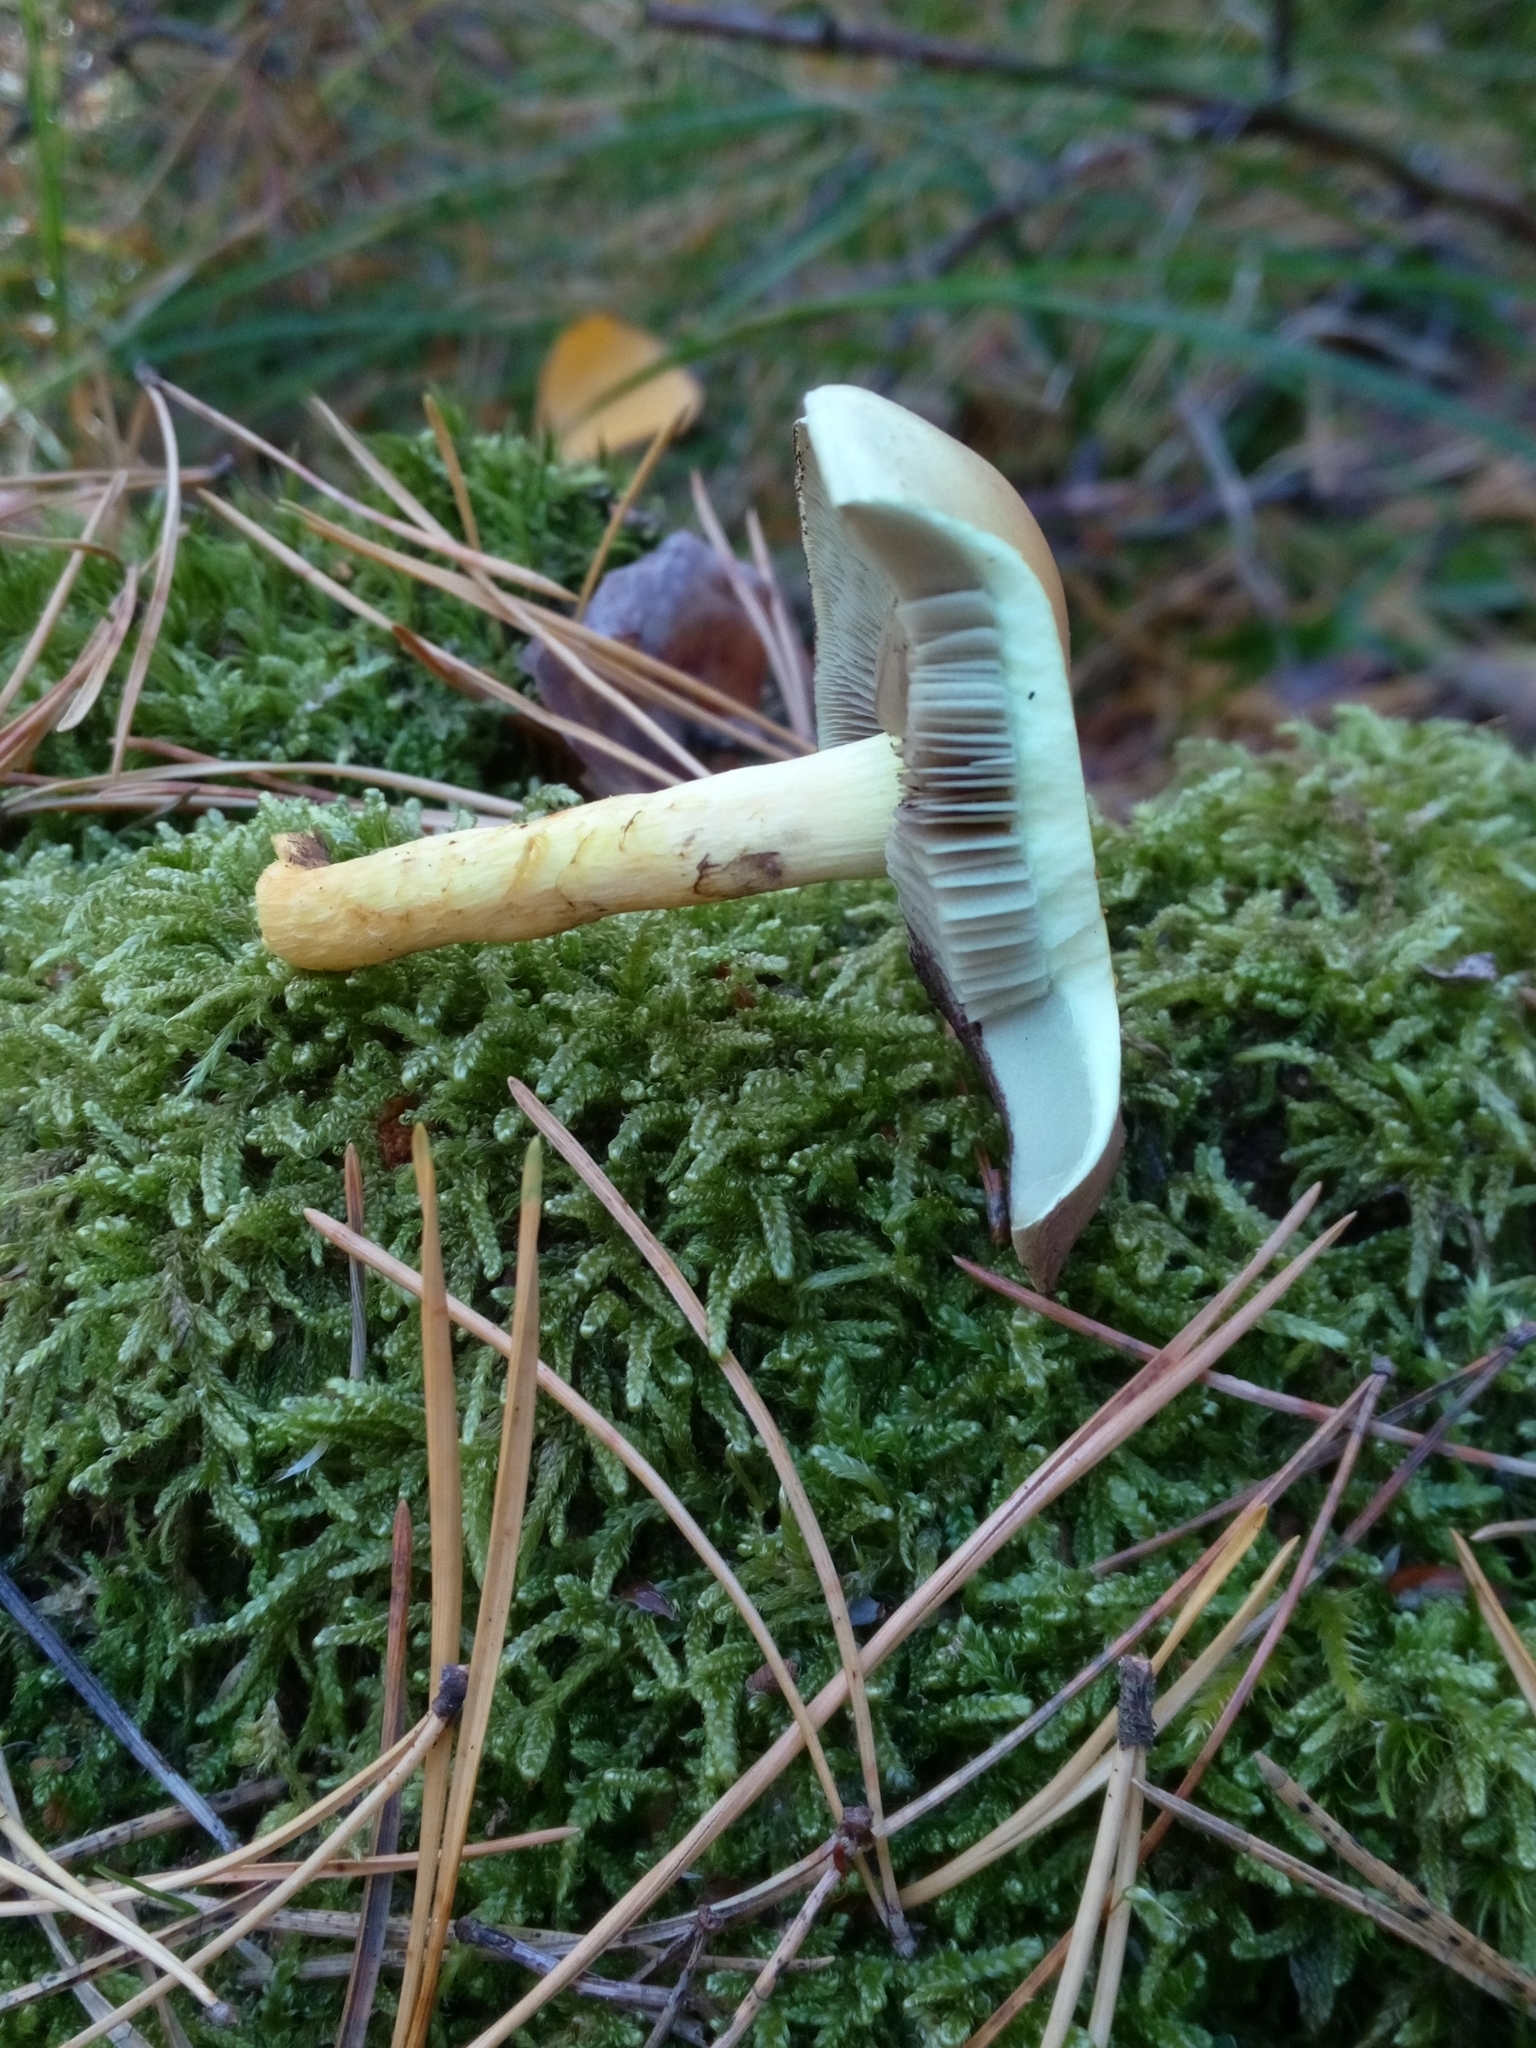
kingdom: Fungi
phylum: Basidiomycota
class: Agaricomycetes
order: Agaricales
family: Strophariaceae
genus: Hypholoma
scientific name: Hypholoma fasciculare
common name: Sulphur tuft
